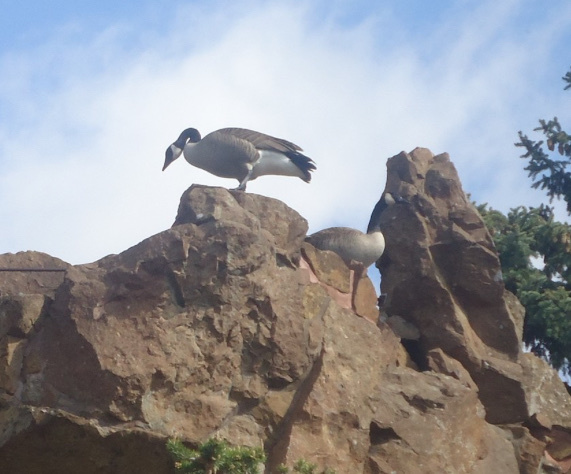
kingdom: Animalia
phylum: Chordata
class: Aves
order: Anseriformes
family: Anatidae
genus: Branta
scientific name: Branta canadensis
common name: Canada goose
